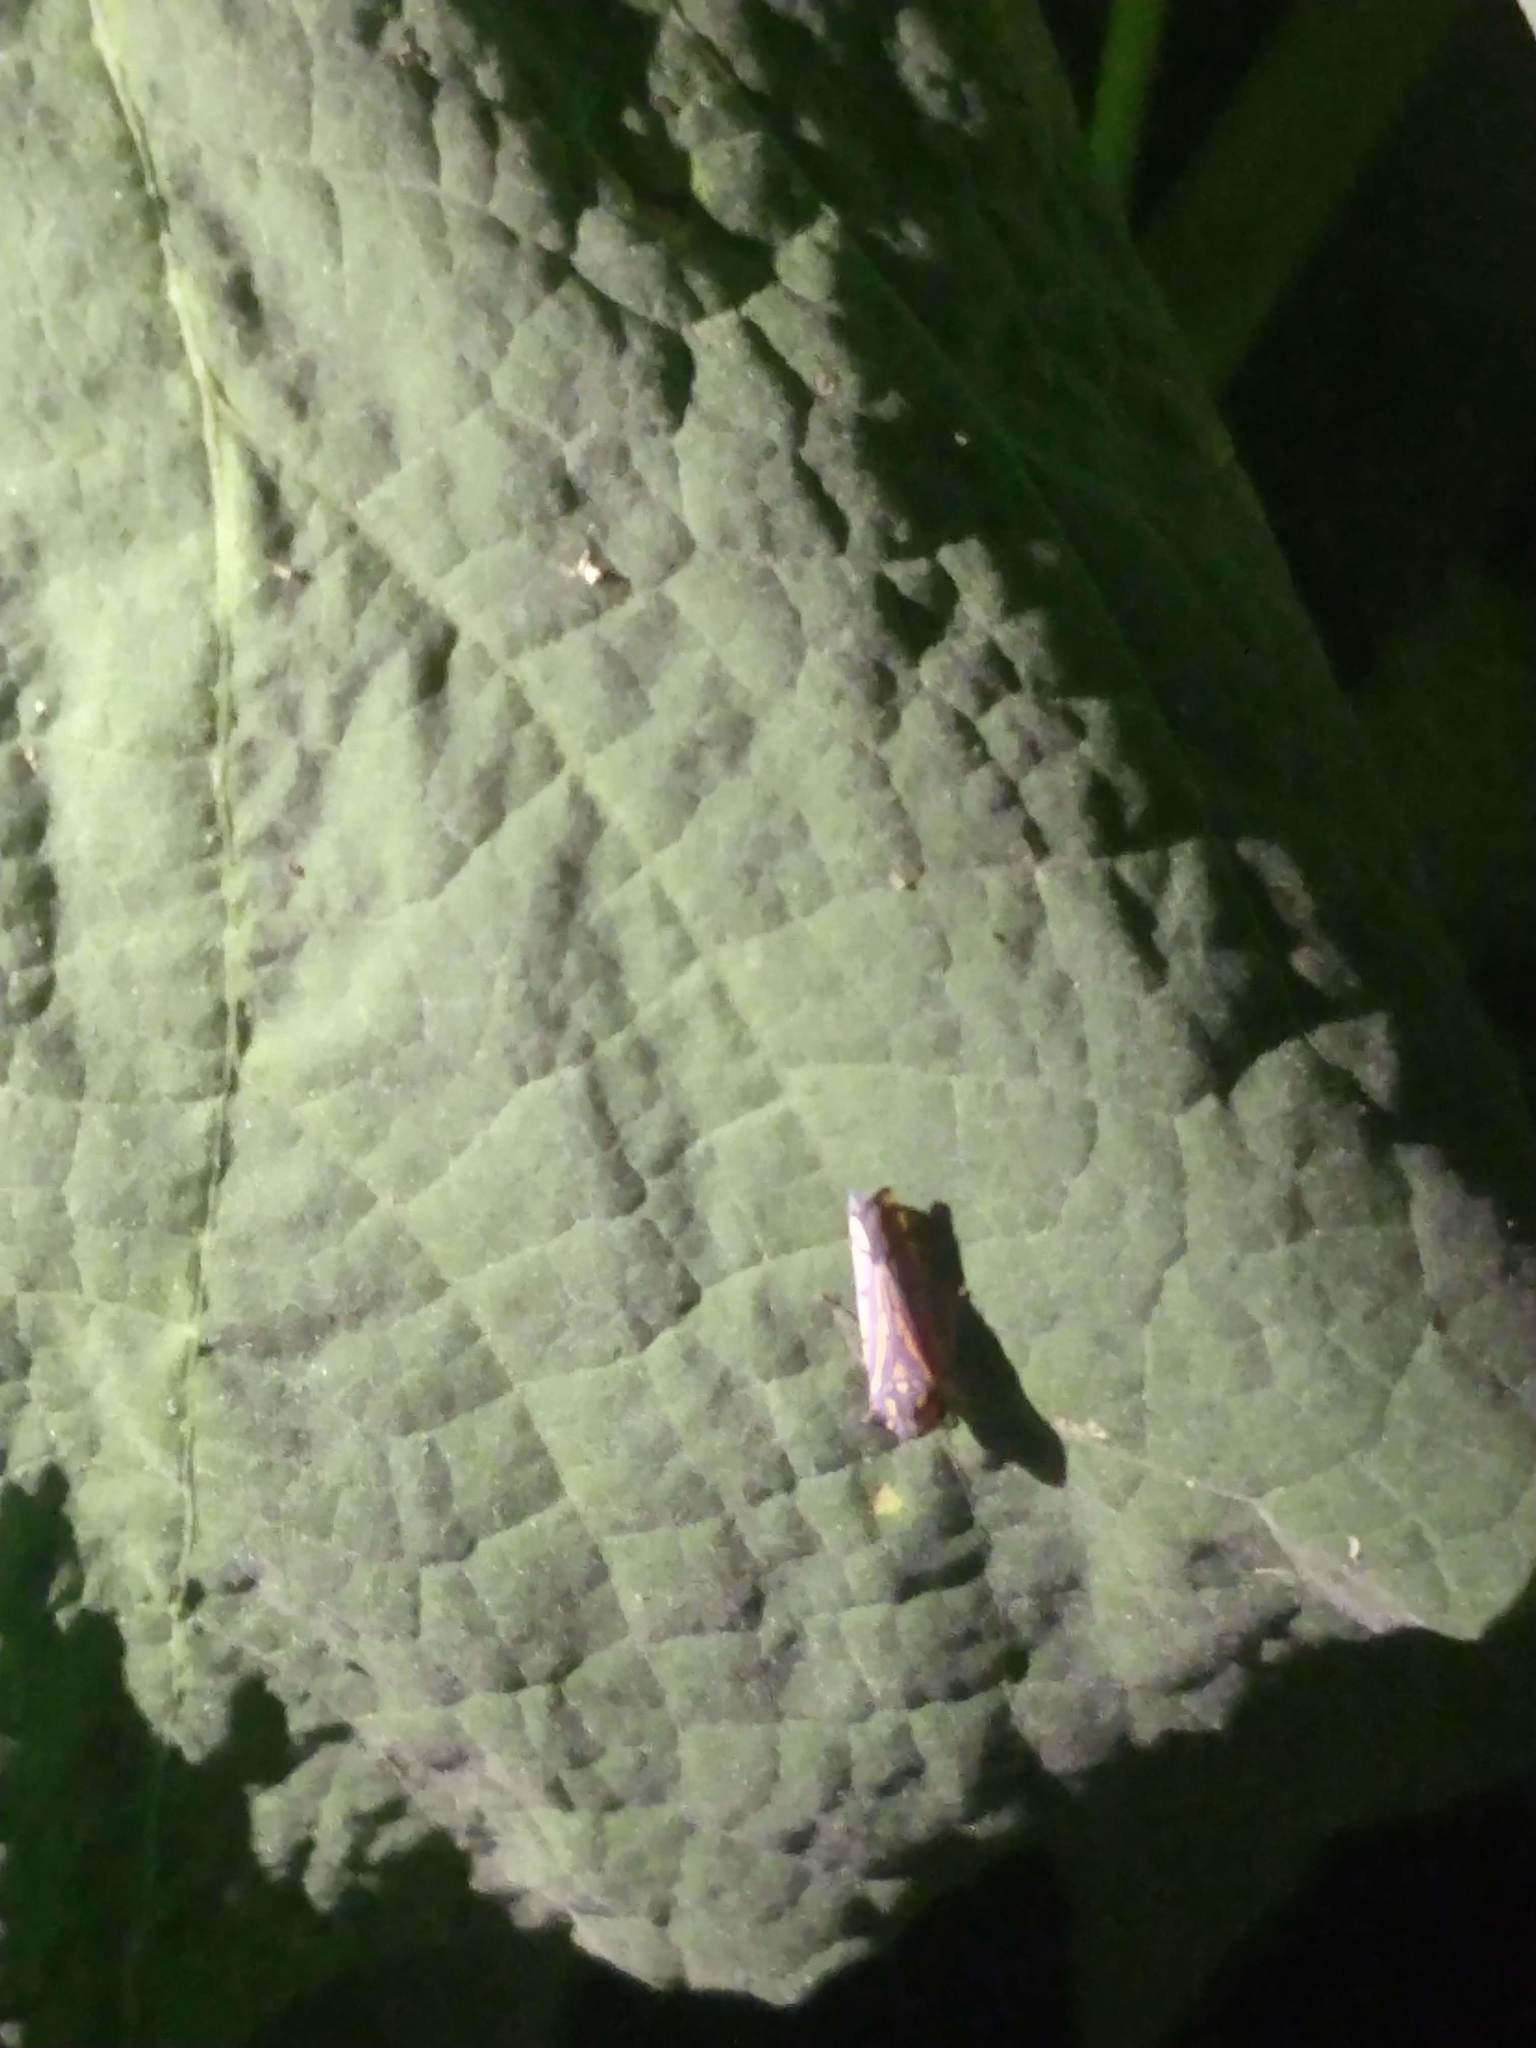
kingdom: Animalia
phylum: Arthropoda
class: Insecta
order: Hemiptera
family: Cicadellidae
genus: Apogonalia
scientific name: Apogonalia stalii
